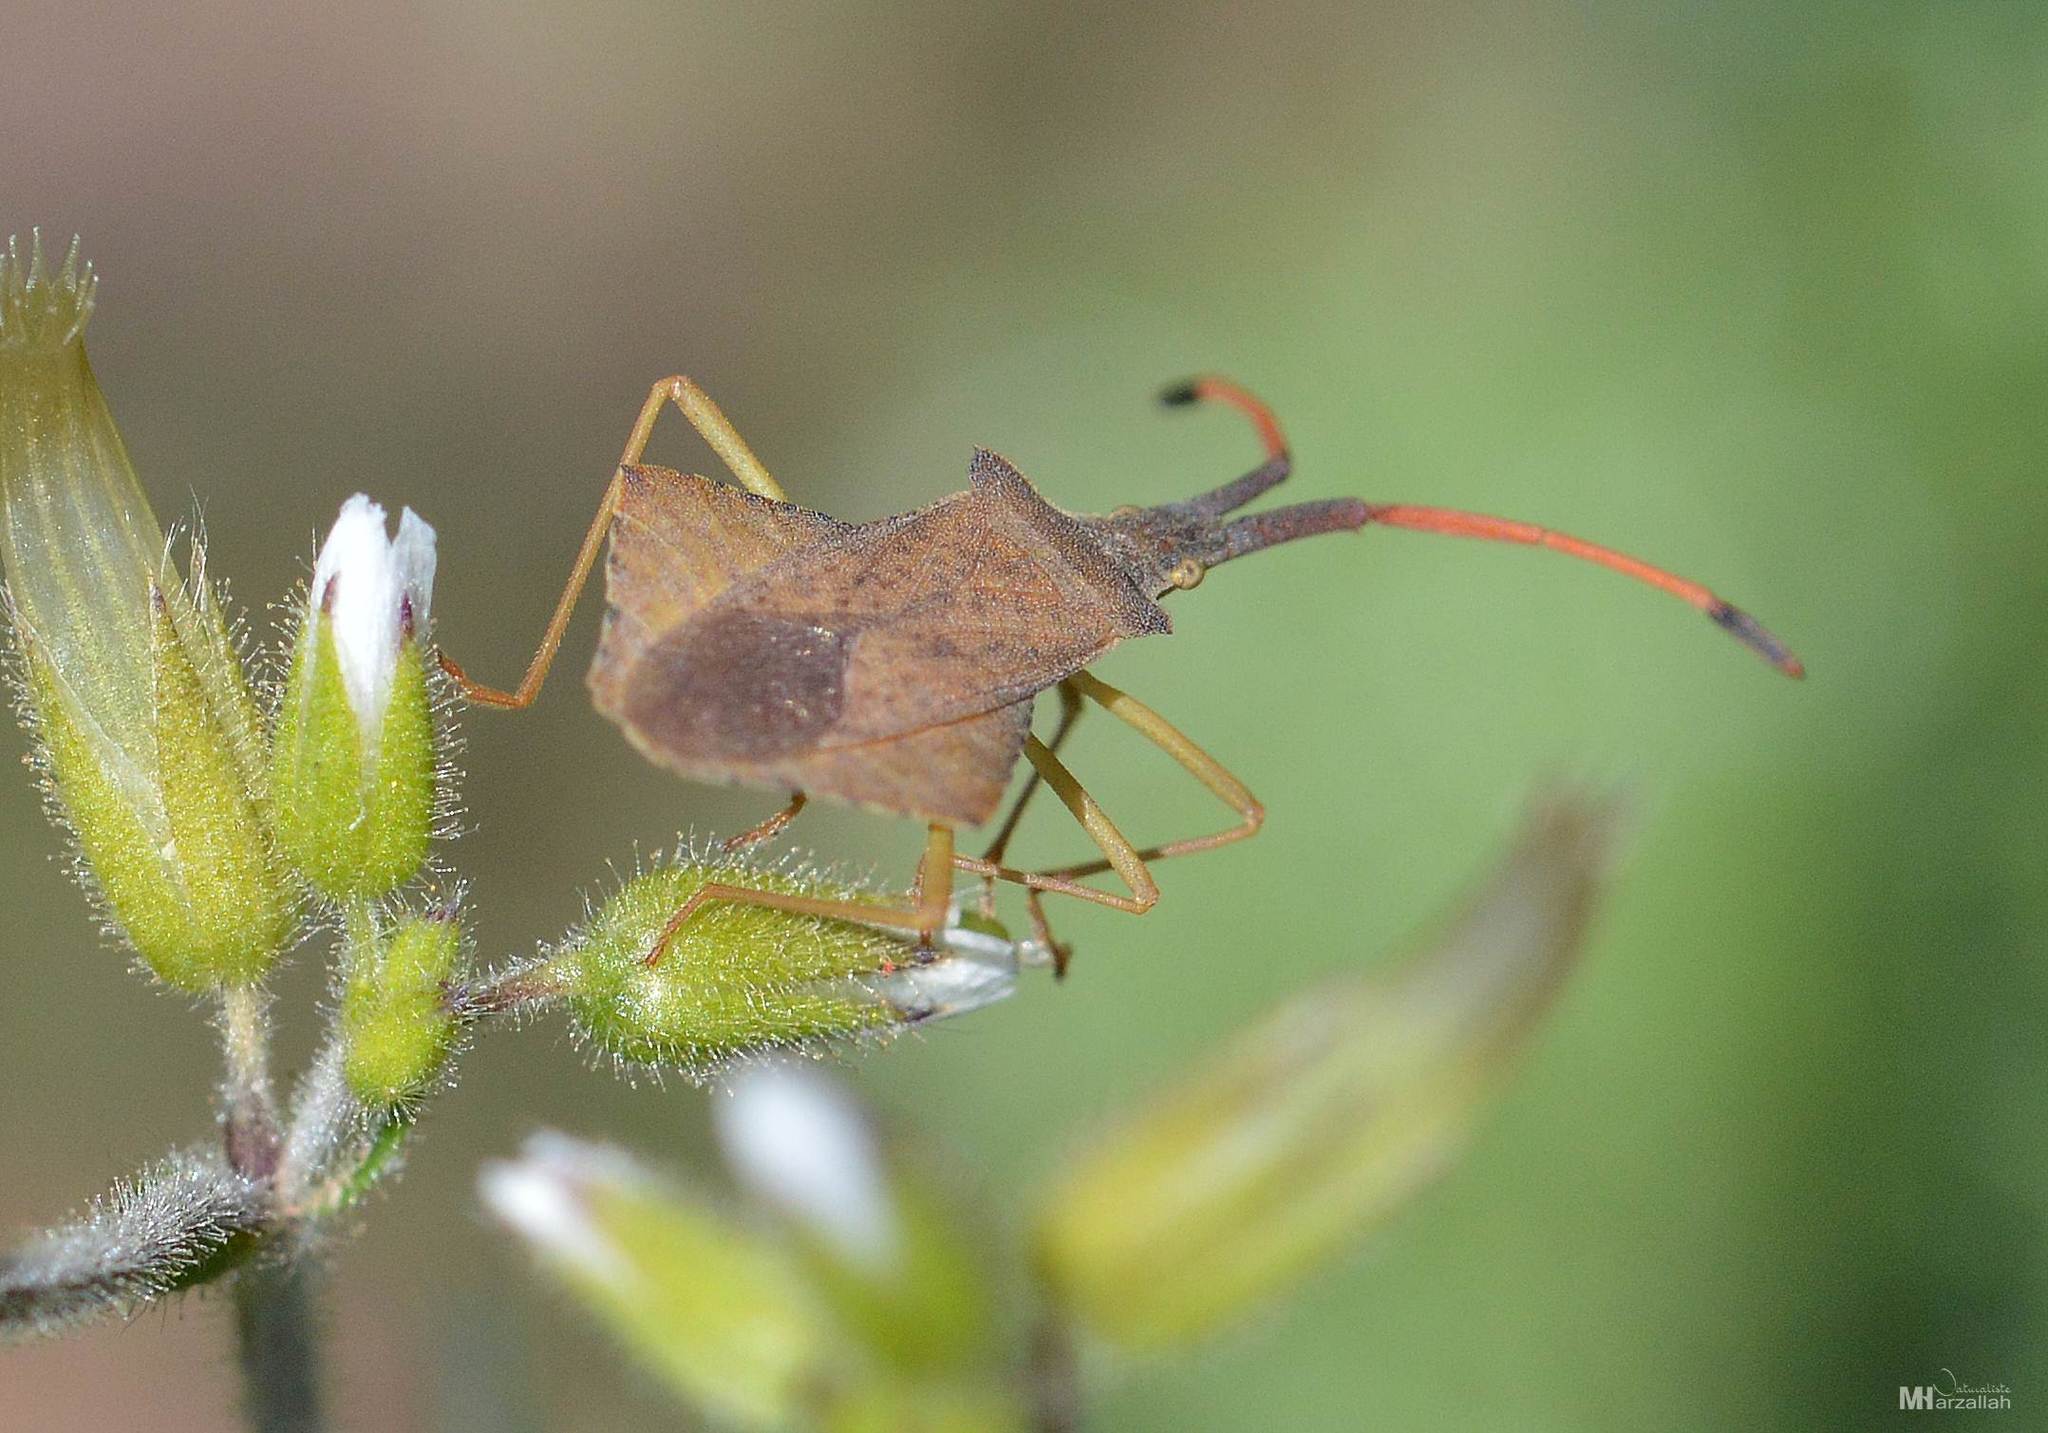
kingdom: Animalia
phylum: Arthropoda
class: Insecta
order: Hemiptera
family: Coreidae
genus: Syromastus
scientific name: Syromastus rhombeus
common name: Rhombic leatherbug
